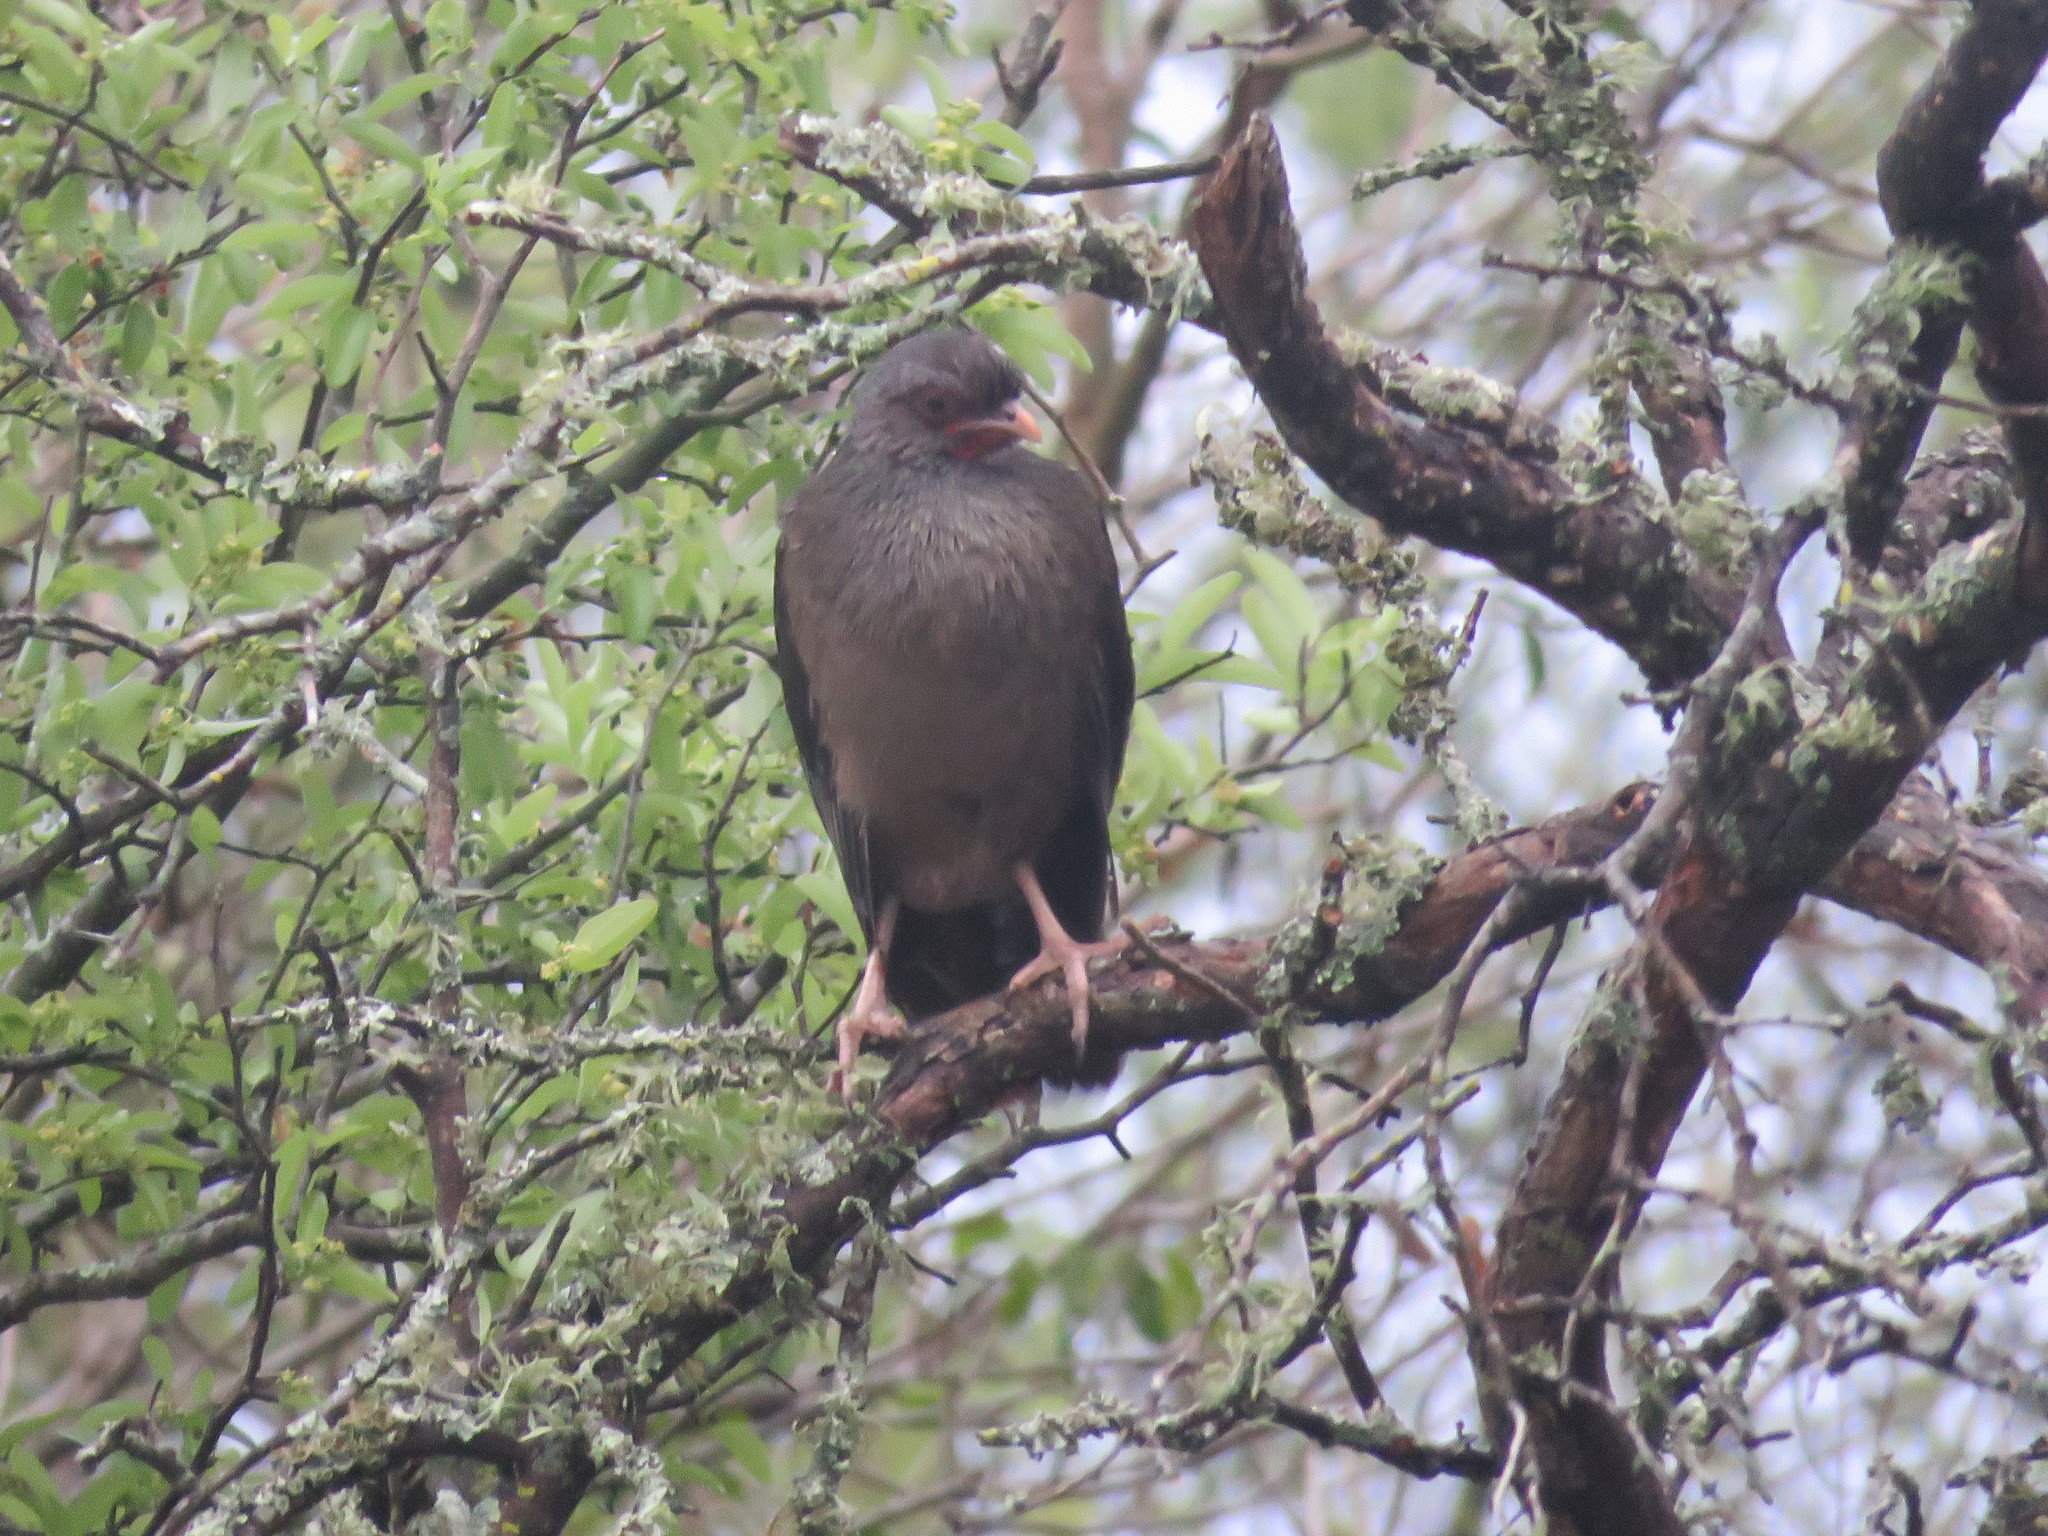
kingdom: Animalia
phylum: Chordata
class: Aves
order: Galliformes
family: Cracidae
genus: Ortalis
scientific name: Ortalis canicollis
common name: Chaco chachalaca
